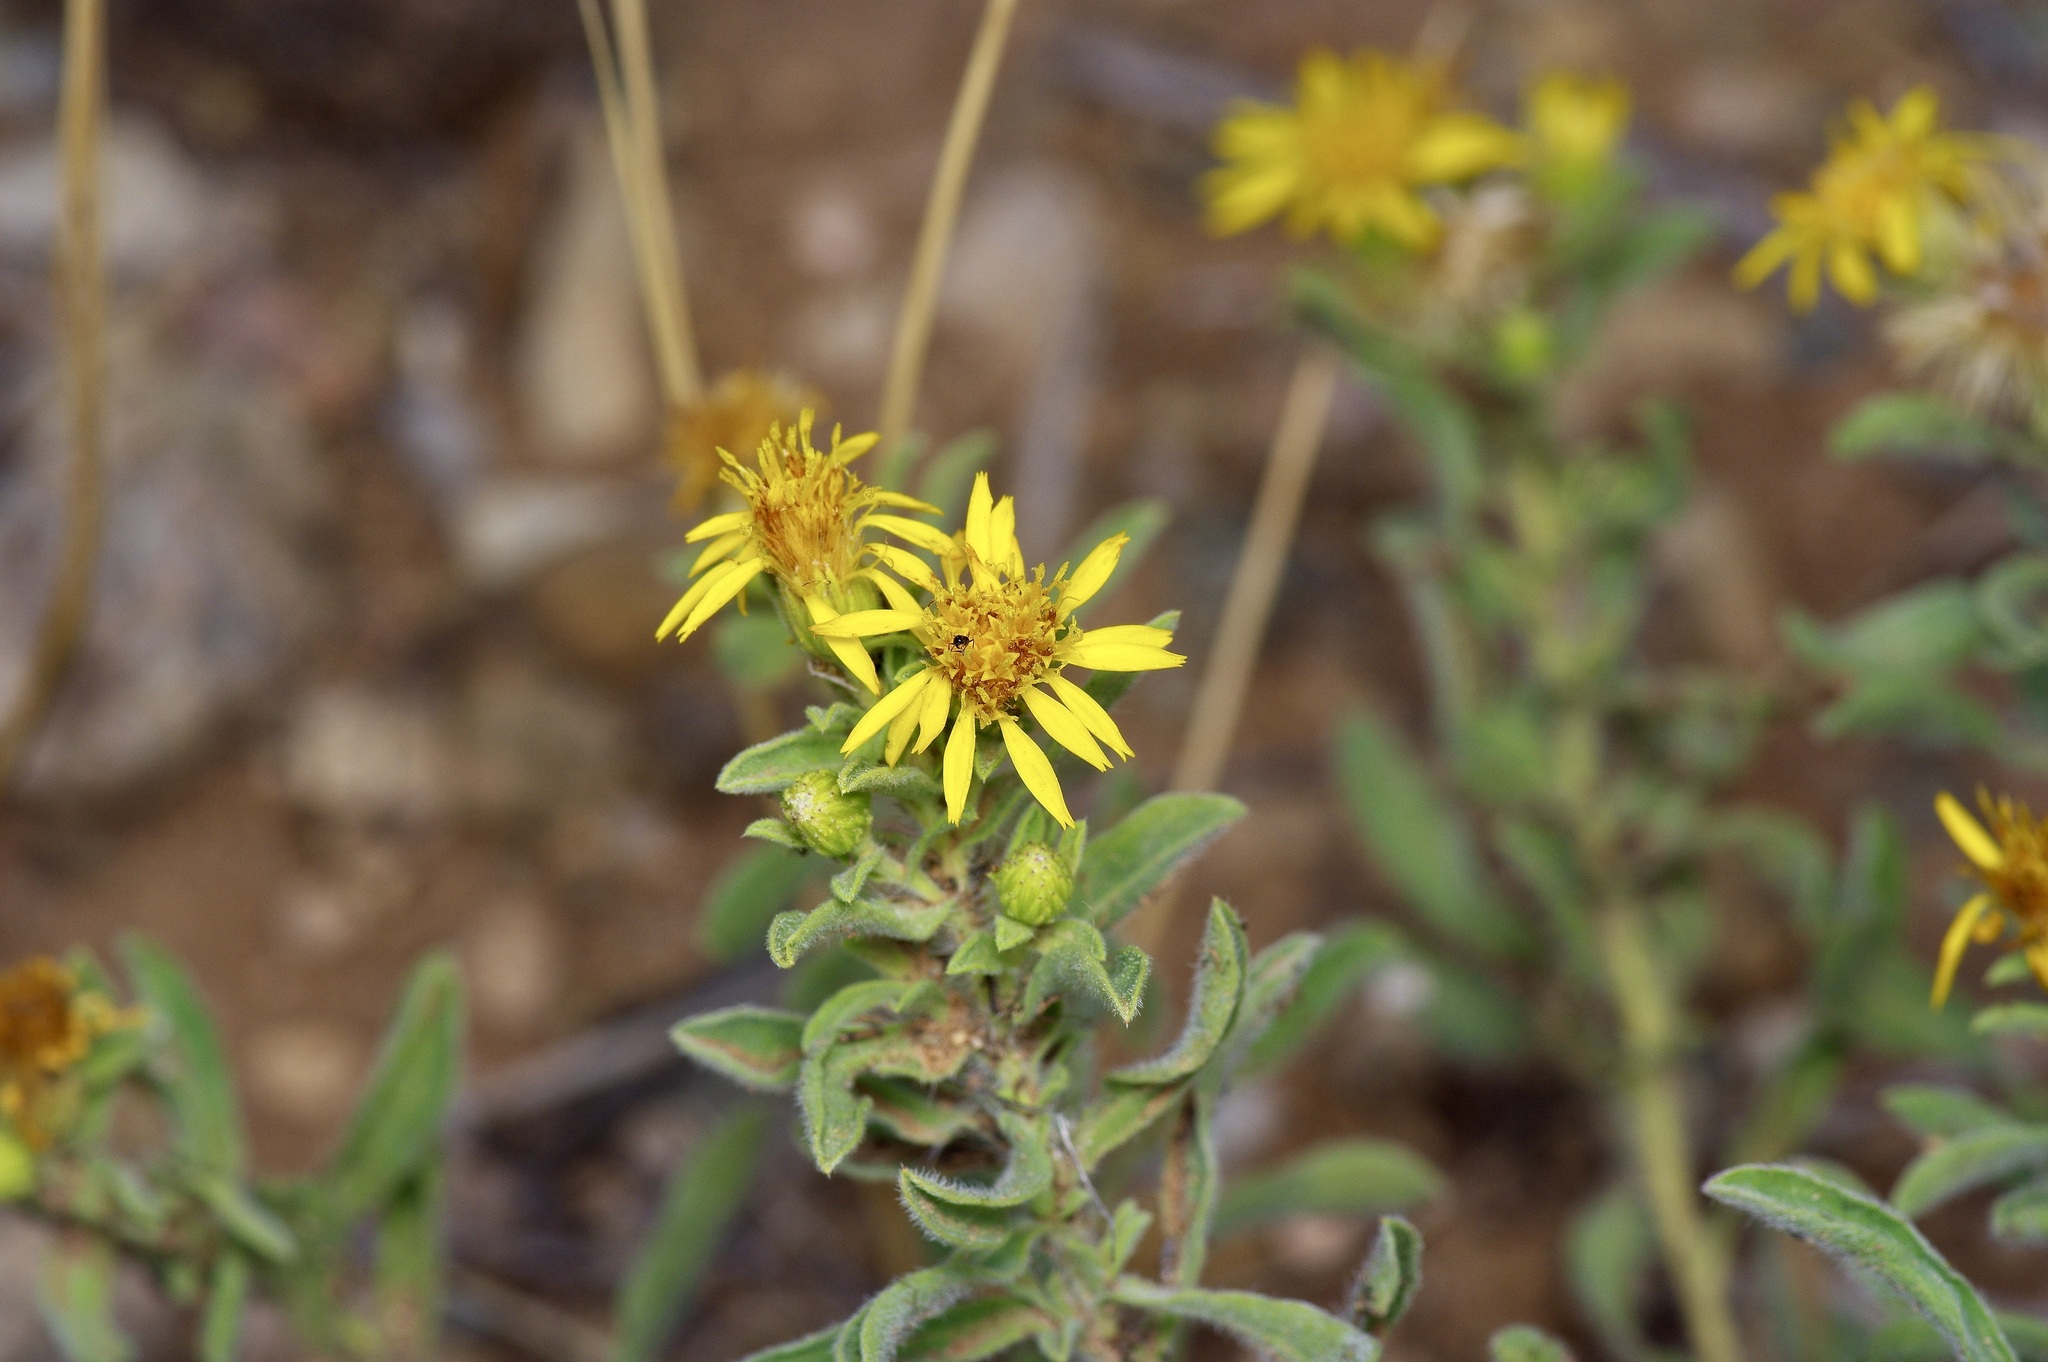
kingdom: Plantae
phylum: Tracheophyta
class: Magnoliopsida
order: Asterales
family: Asteraceae
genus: Heterotheca
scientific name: Heterotheca hirsutissima
